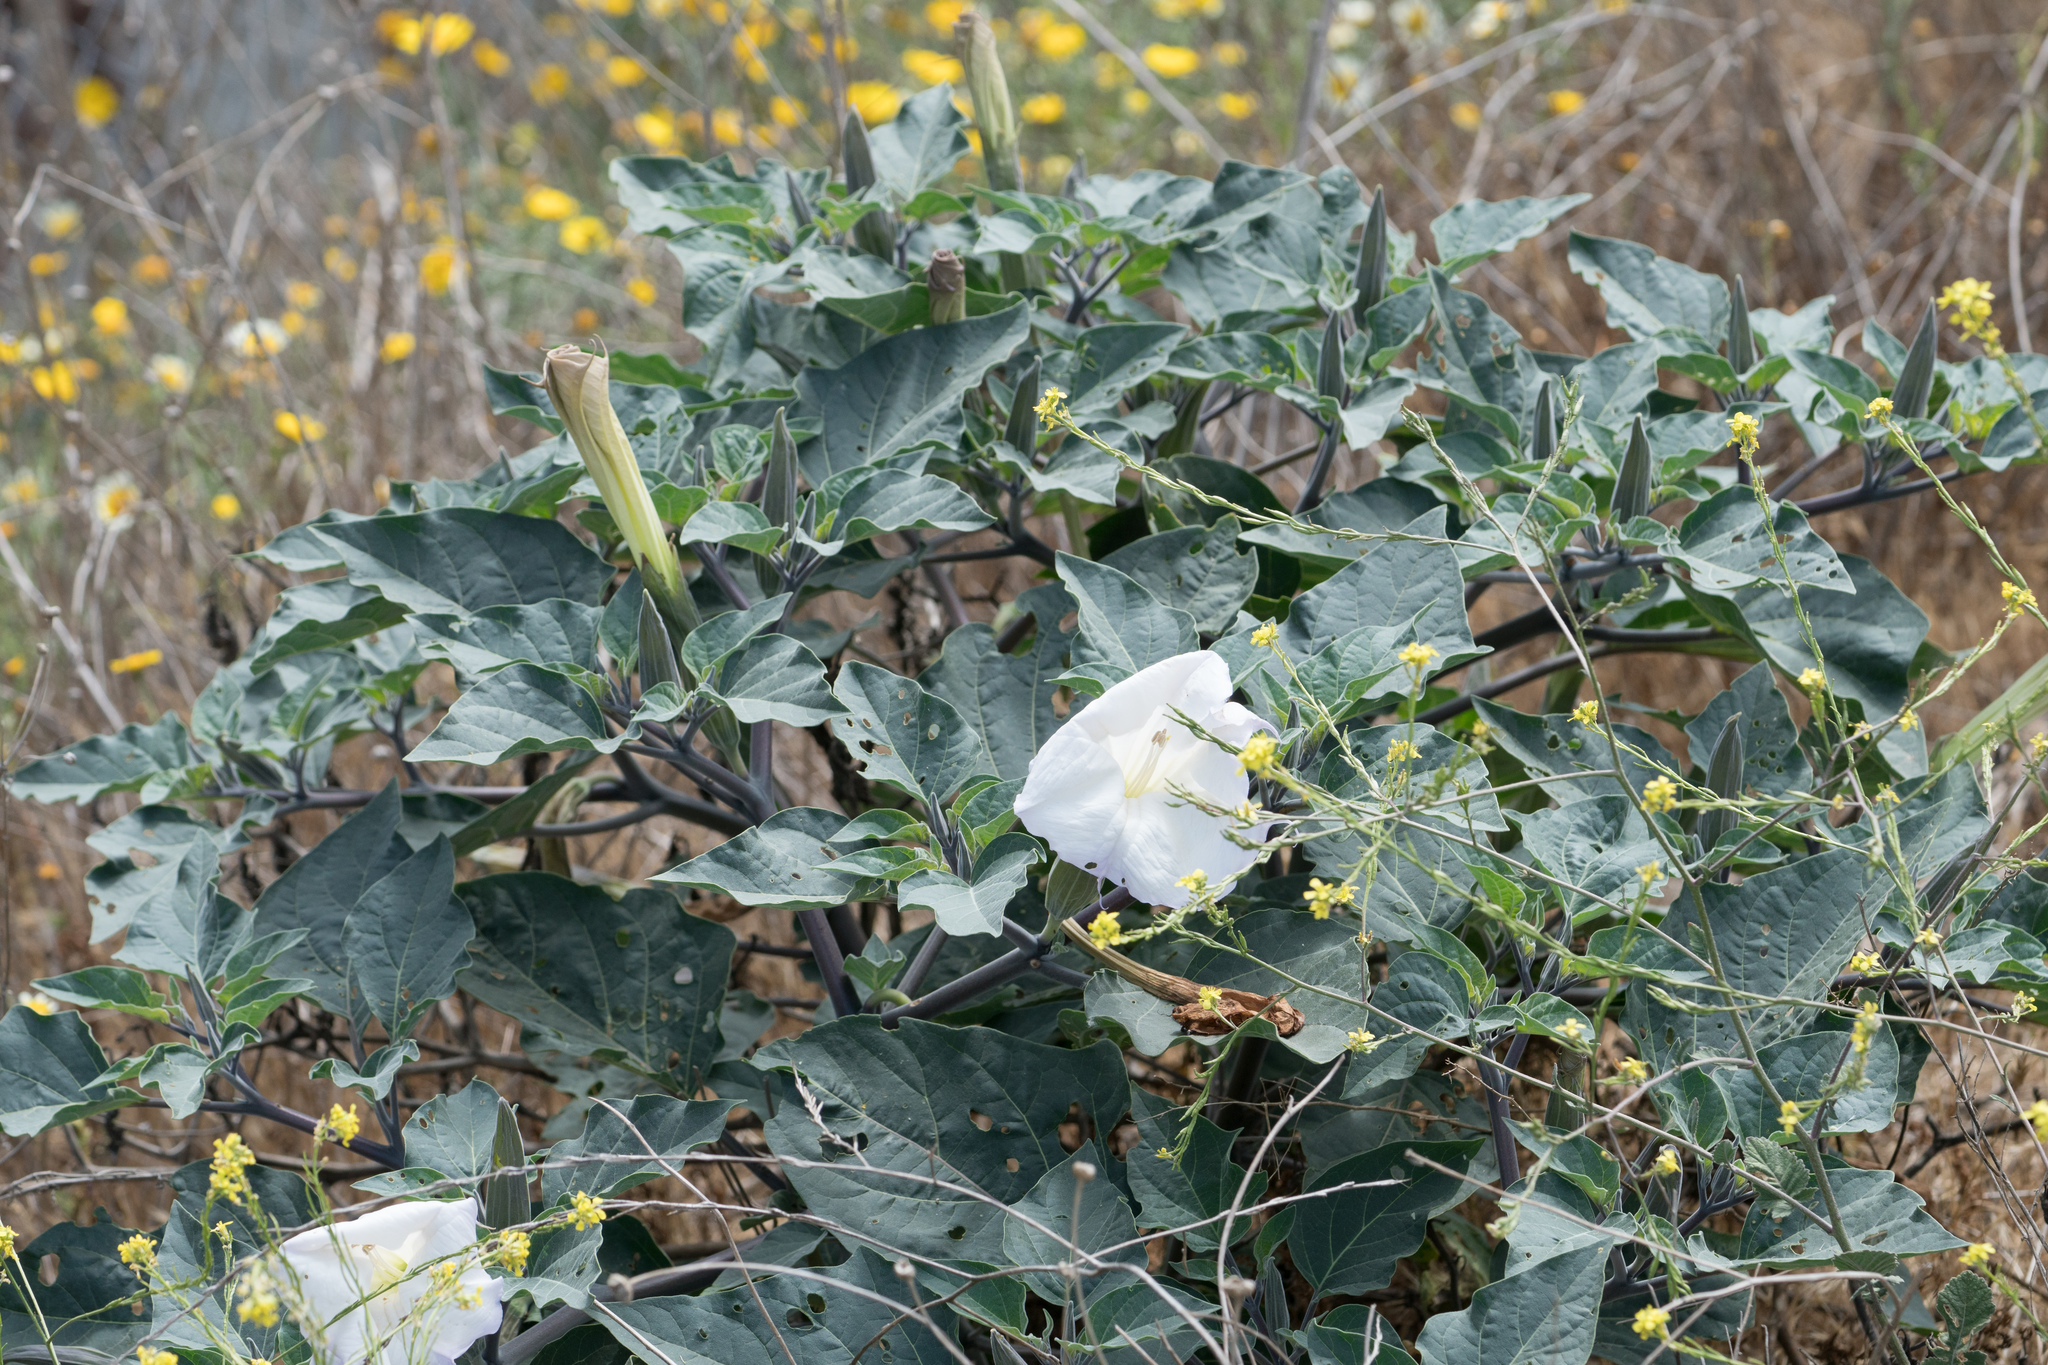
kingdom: Plantae
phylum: Tracheophyta
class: Magnoliopsida
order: Solanales
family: Solanaceae
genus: Datura
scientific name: Datura wrightii
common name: Sacred thorn-apple
